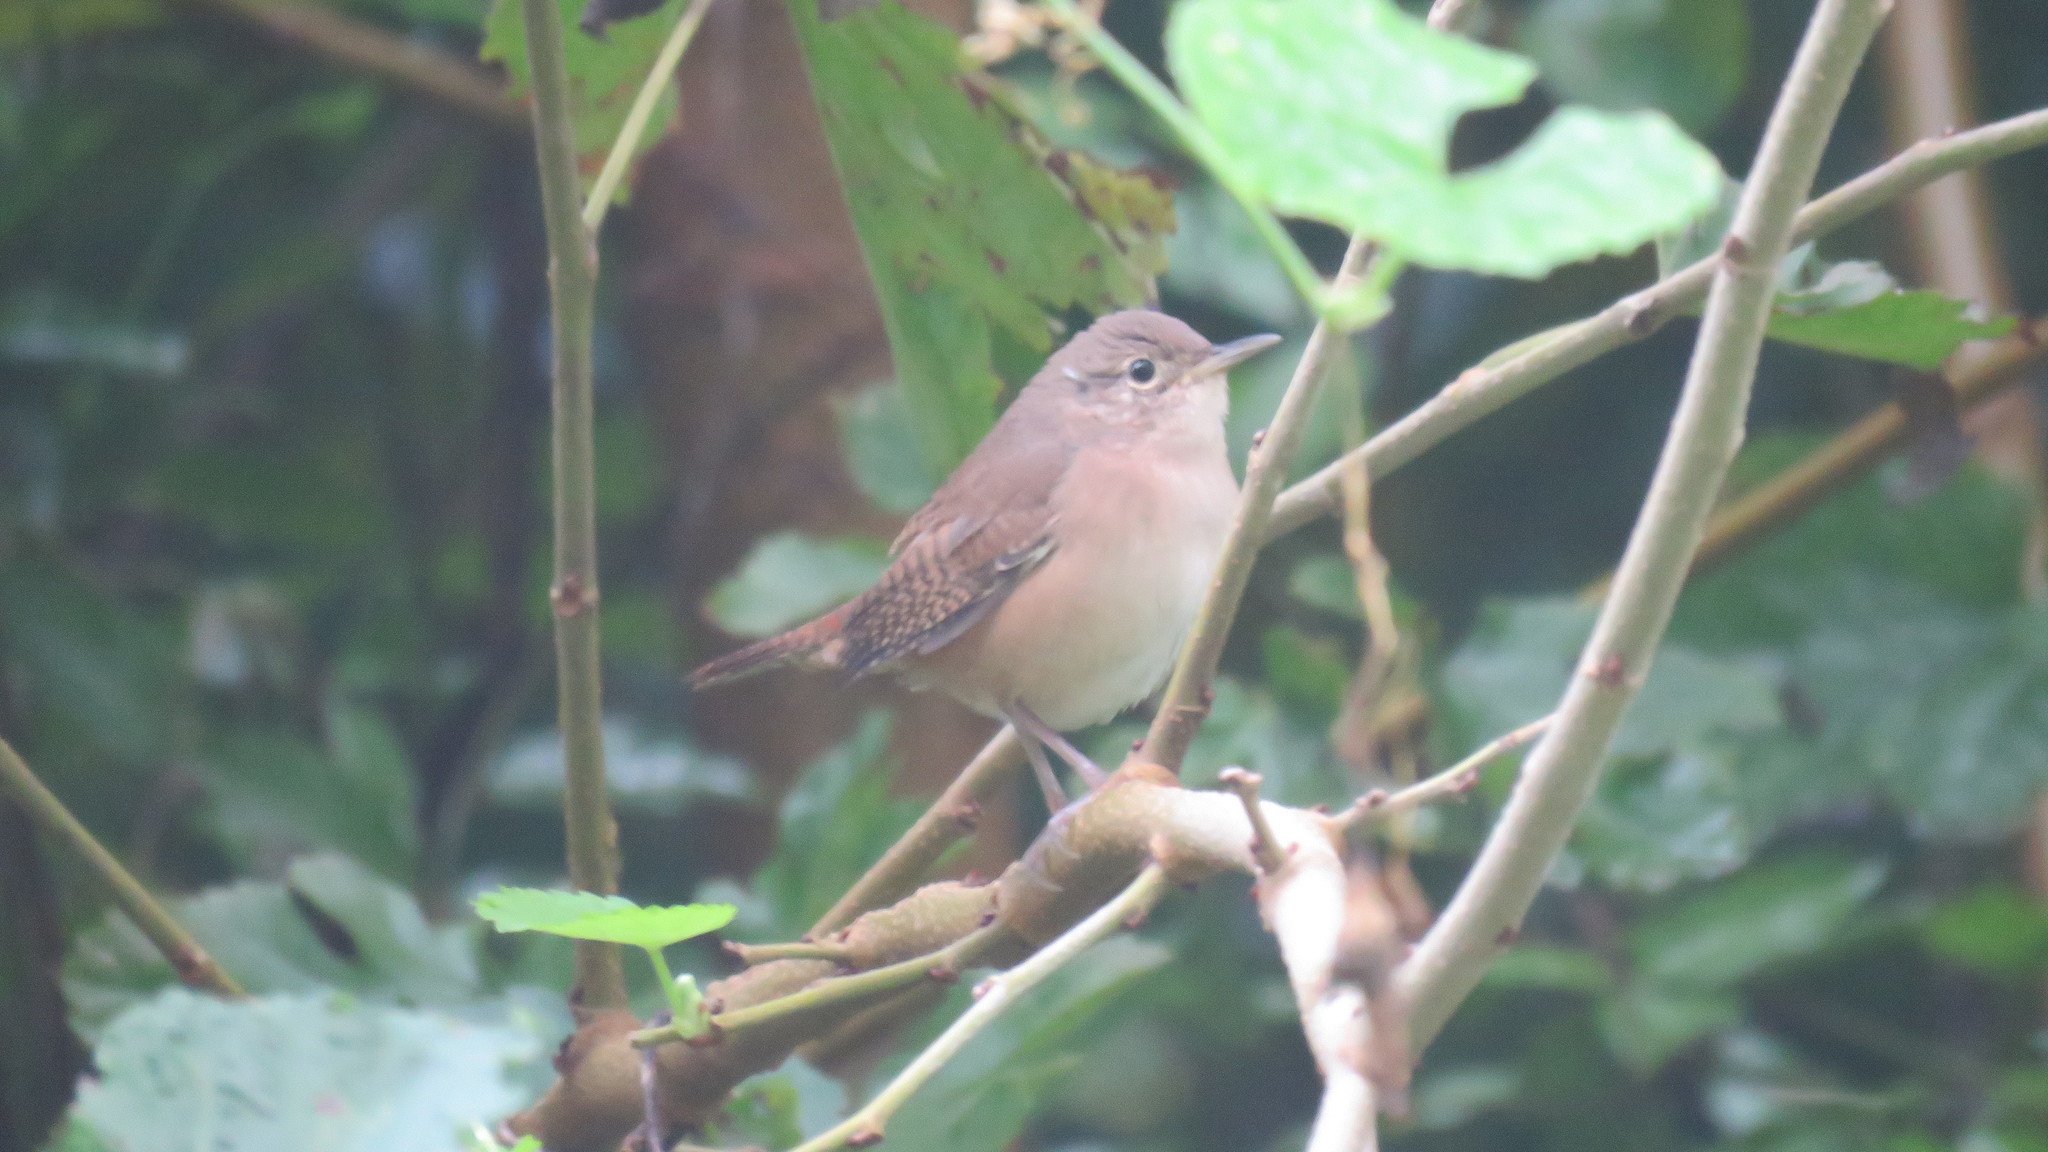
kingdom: Animalia
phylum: Chordata
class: Aves
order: Passeriformes
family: Troglodytidae
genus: Troglodytes
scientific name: Troglodytes aedon
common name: House wren
